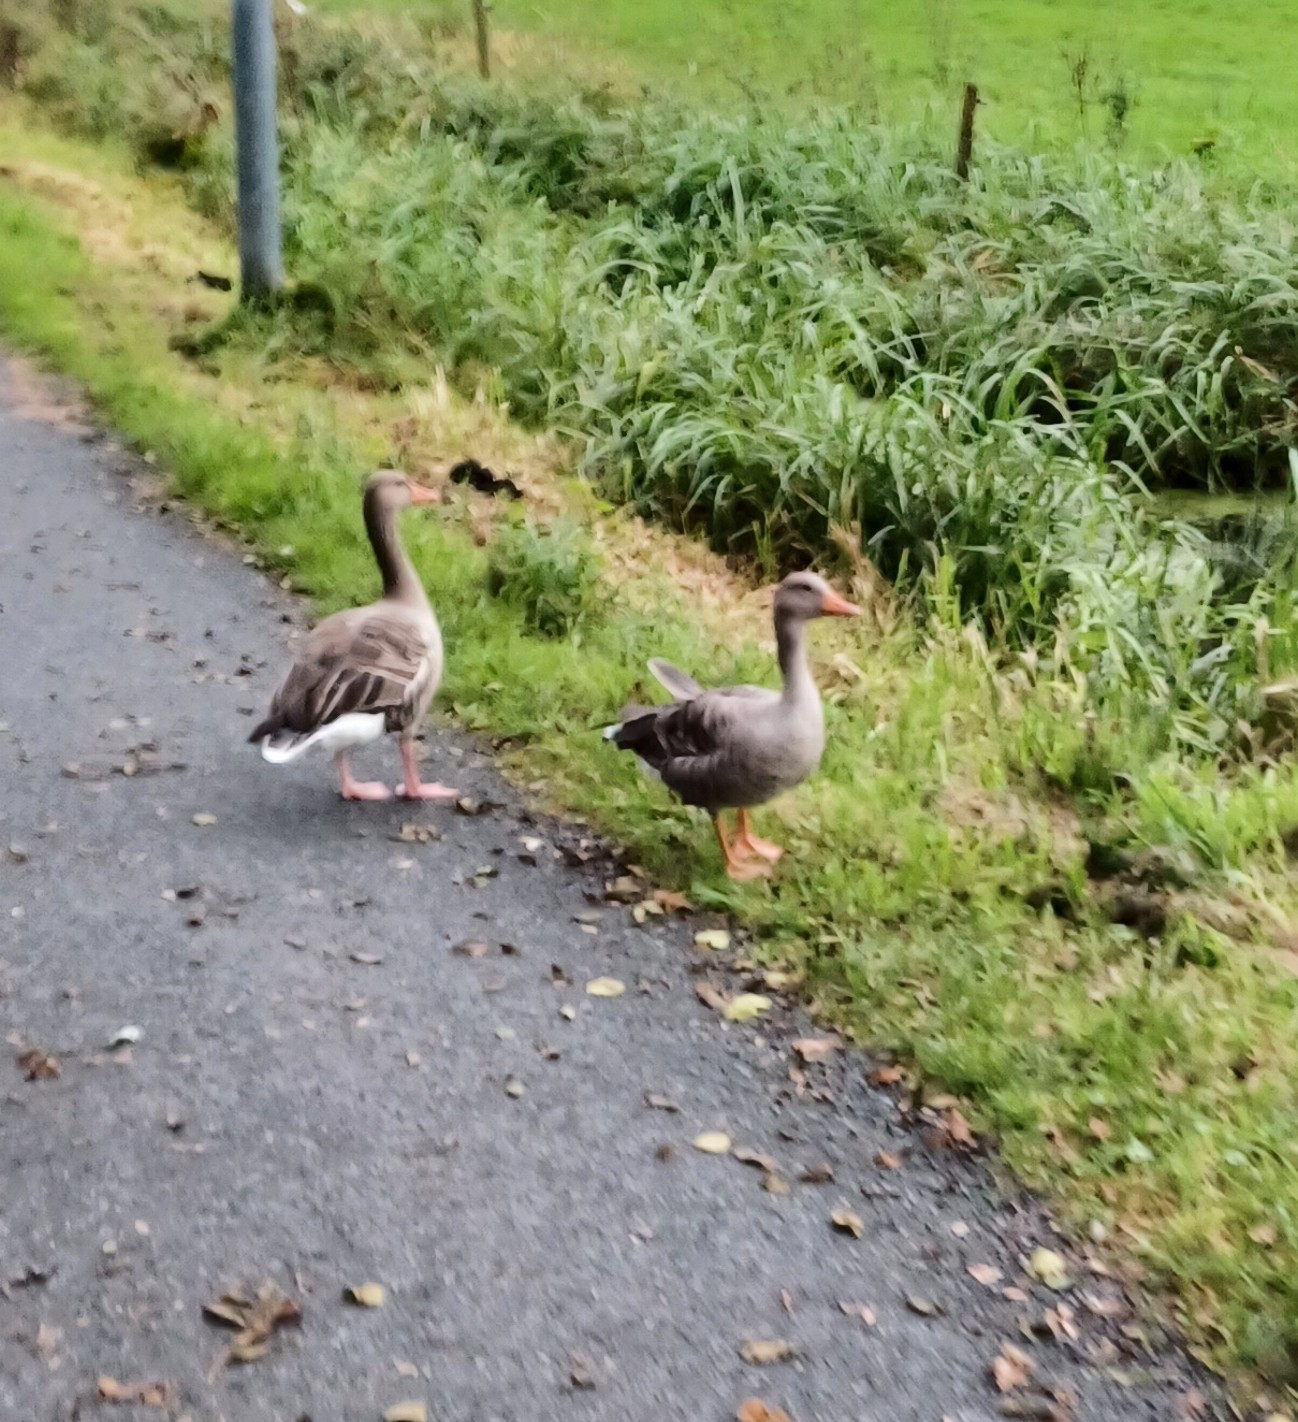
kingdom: Animalia
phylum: Chordata
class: Aves
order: Anseriformes
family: Anatidae
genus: Anser
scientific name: Anser anser
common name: Greylag goose
